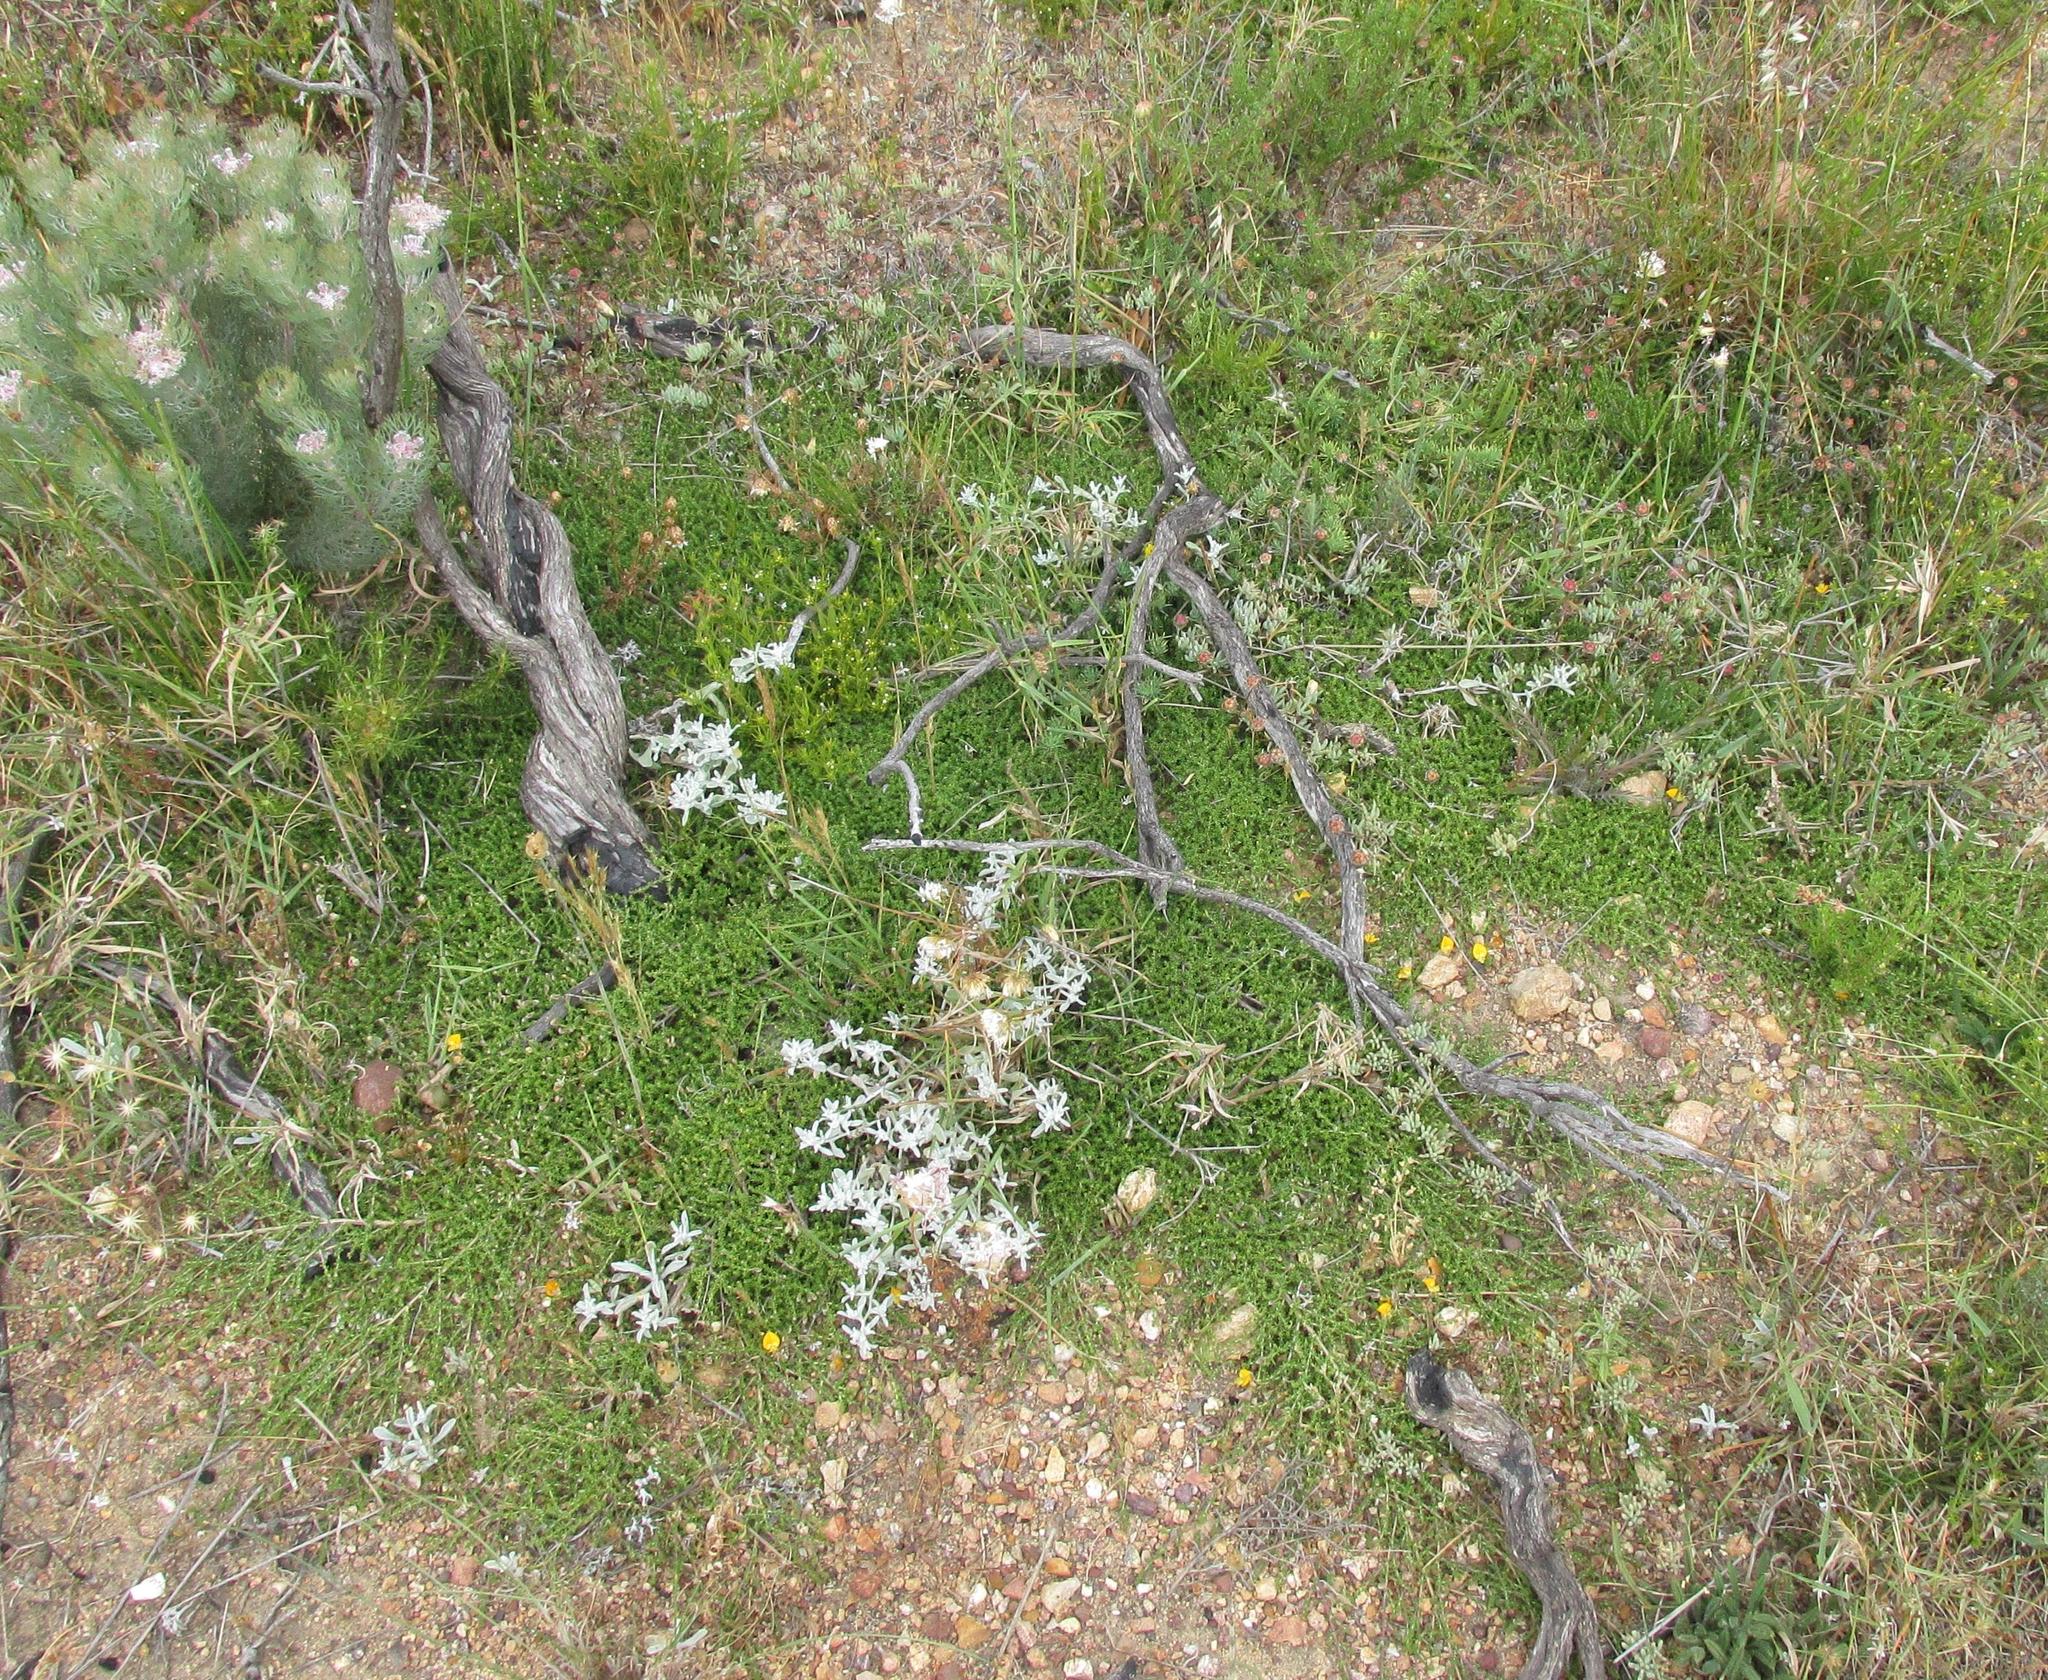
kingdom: Plantae
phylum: Tracheophyta
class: Magnoliopsida
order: Fabales
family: Fabaceae
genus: Aspalathus
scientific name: Aspalathus horizontalis
